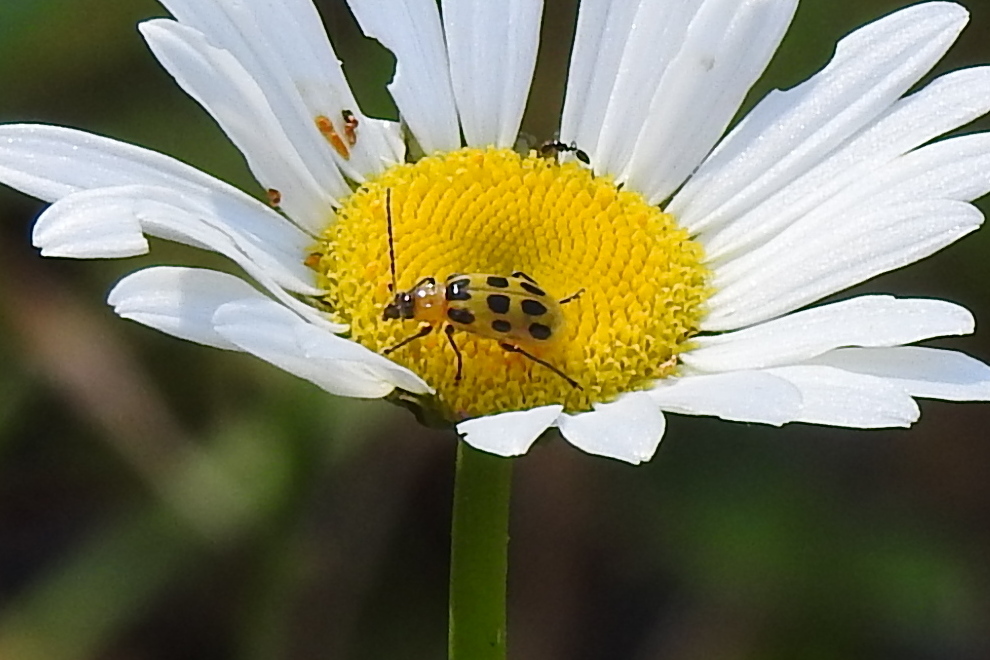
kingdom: Animalia
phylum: Arthropoda
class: Insecta
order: Coleoptera
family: Chrysomelidae
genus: Diabrotica
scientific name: Diabrotica undecimpunctata
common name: Spotted cucumber beetle
